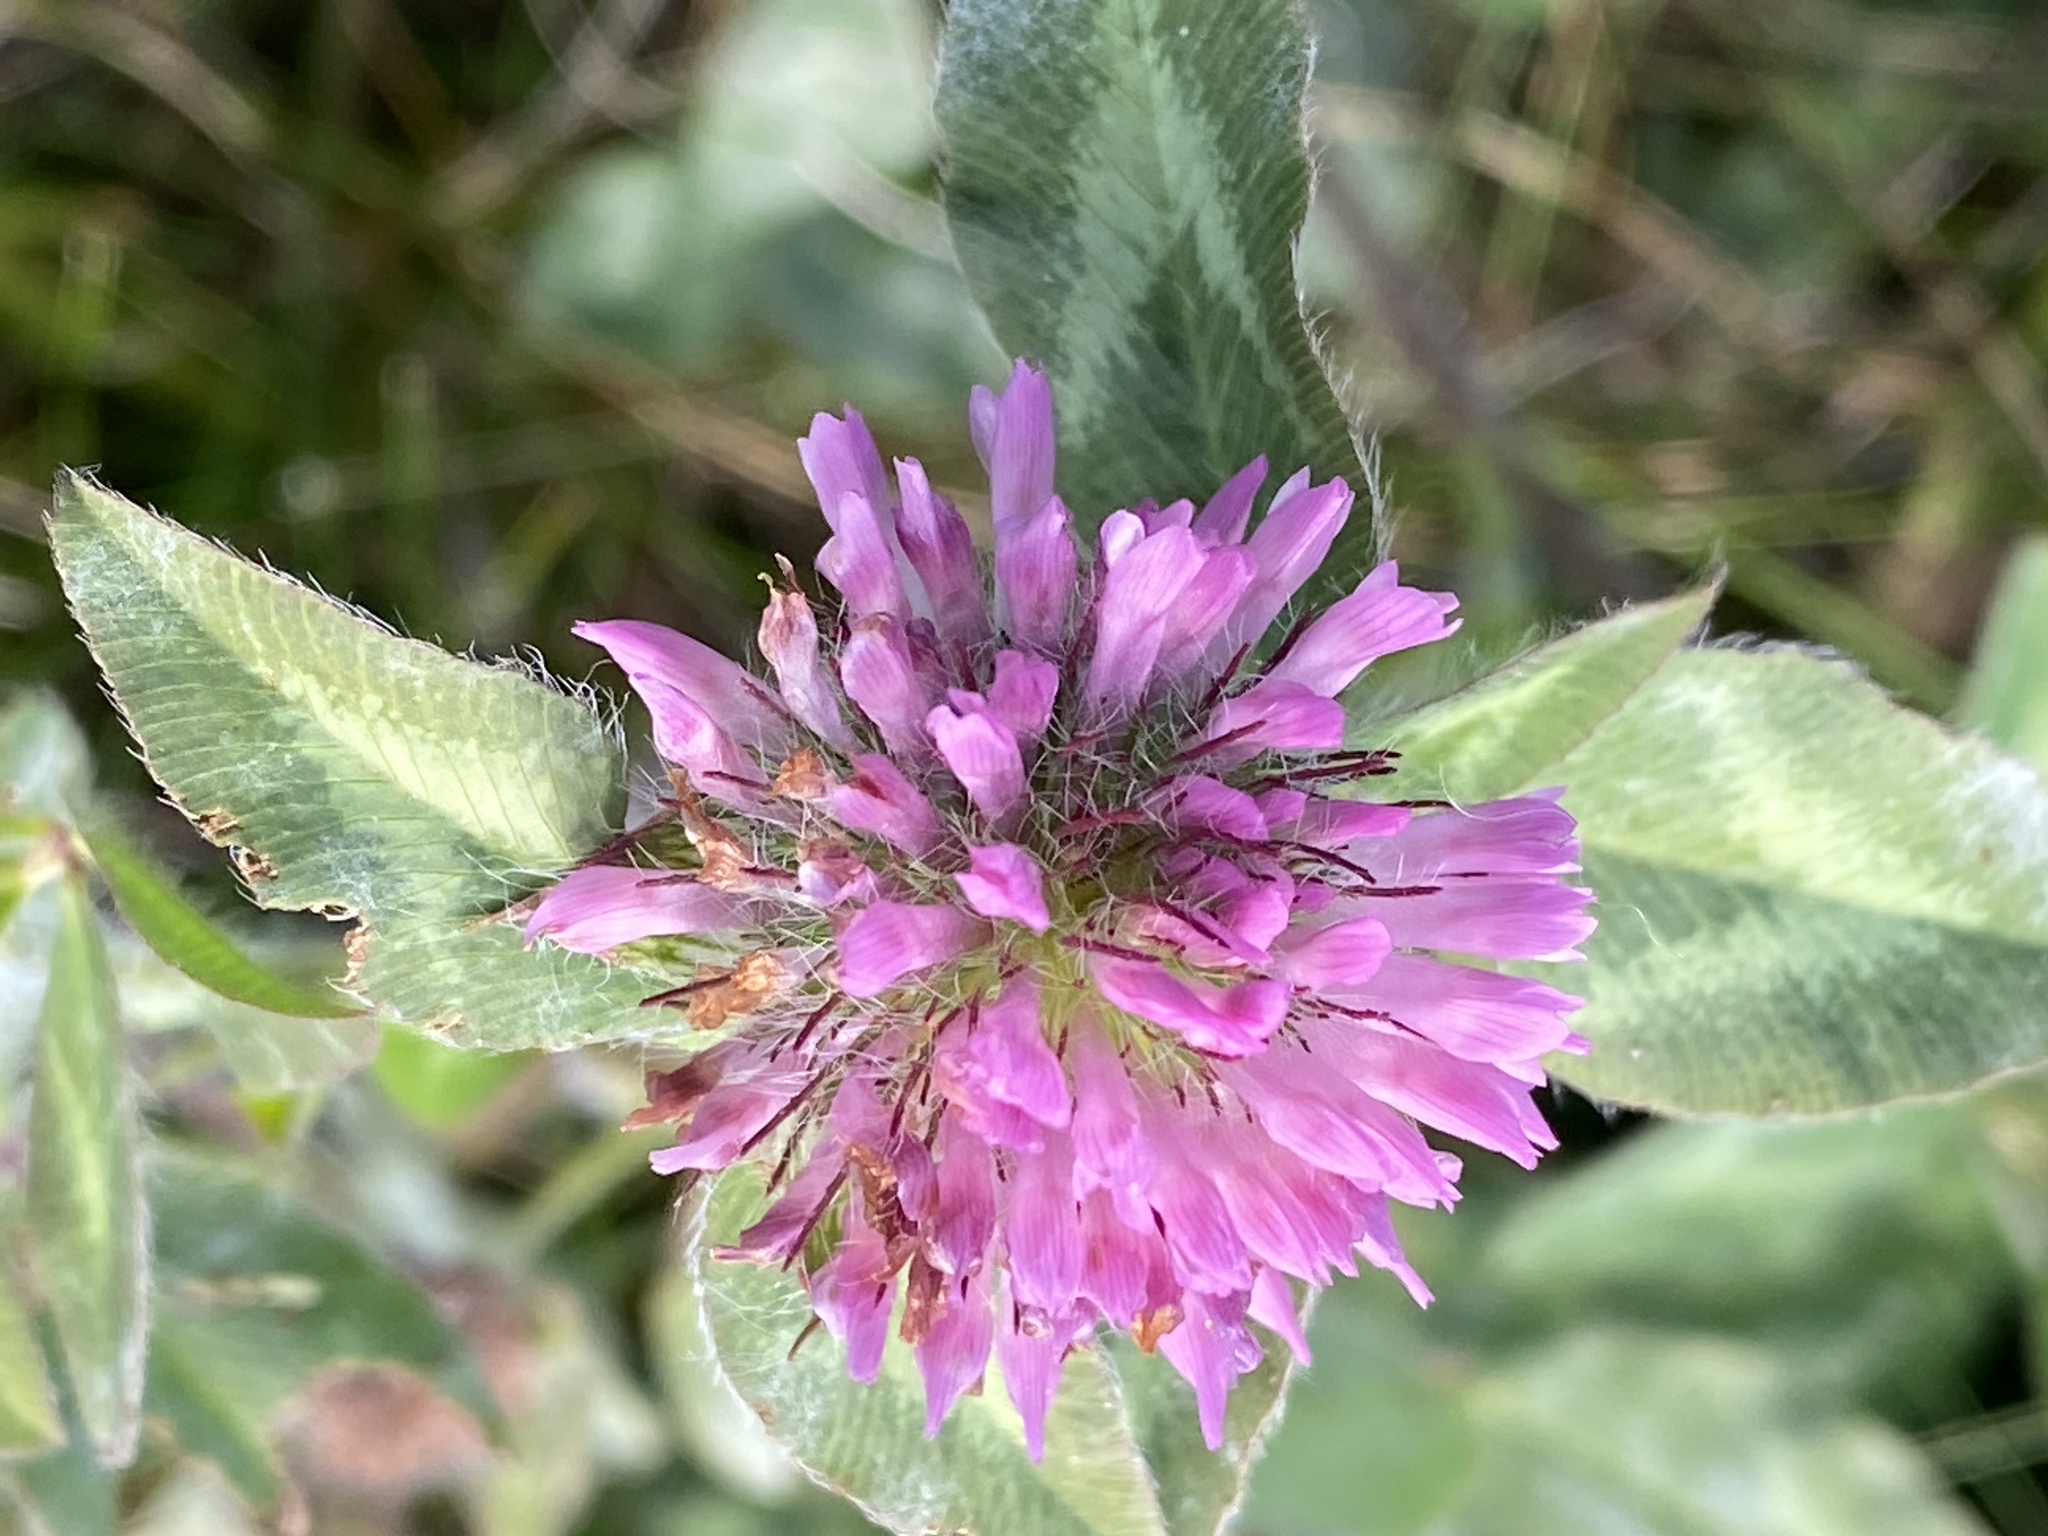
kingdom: Plantae
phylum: Tracheophyta
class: Magnoliopsida
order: Fabales
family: Fabaceae
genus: Trifolium
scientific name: Trifolium pratense
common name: Red clover
